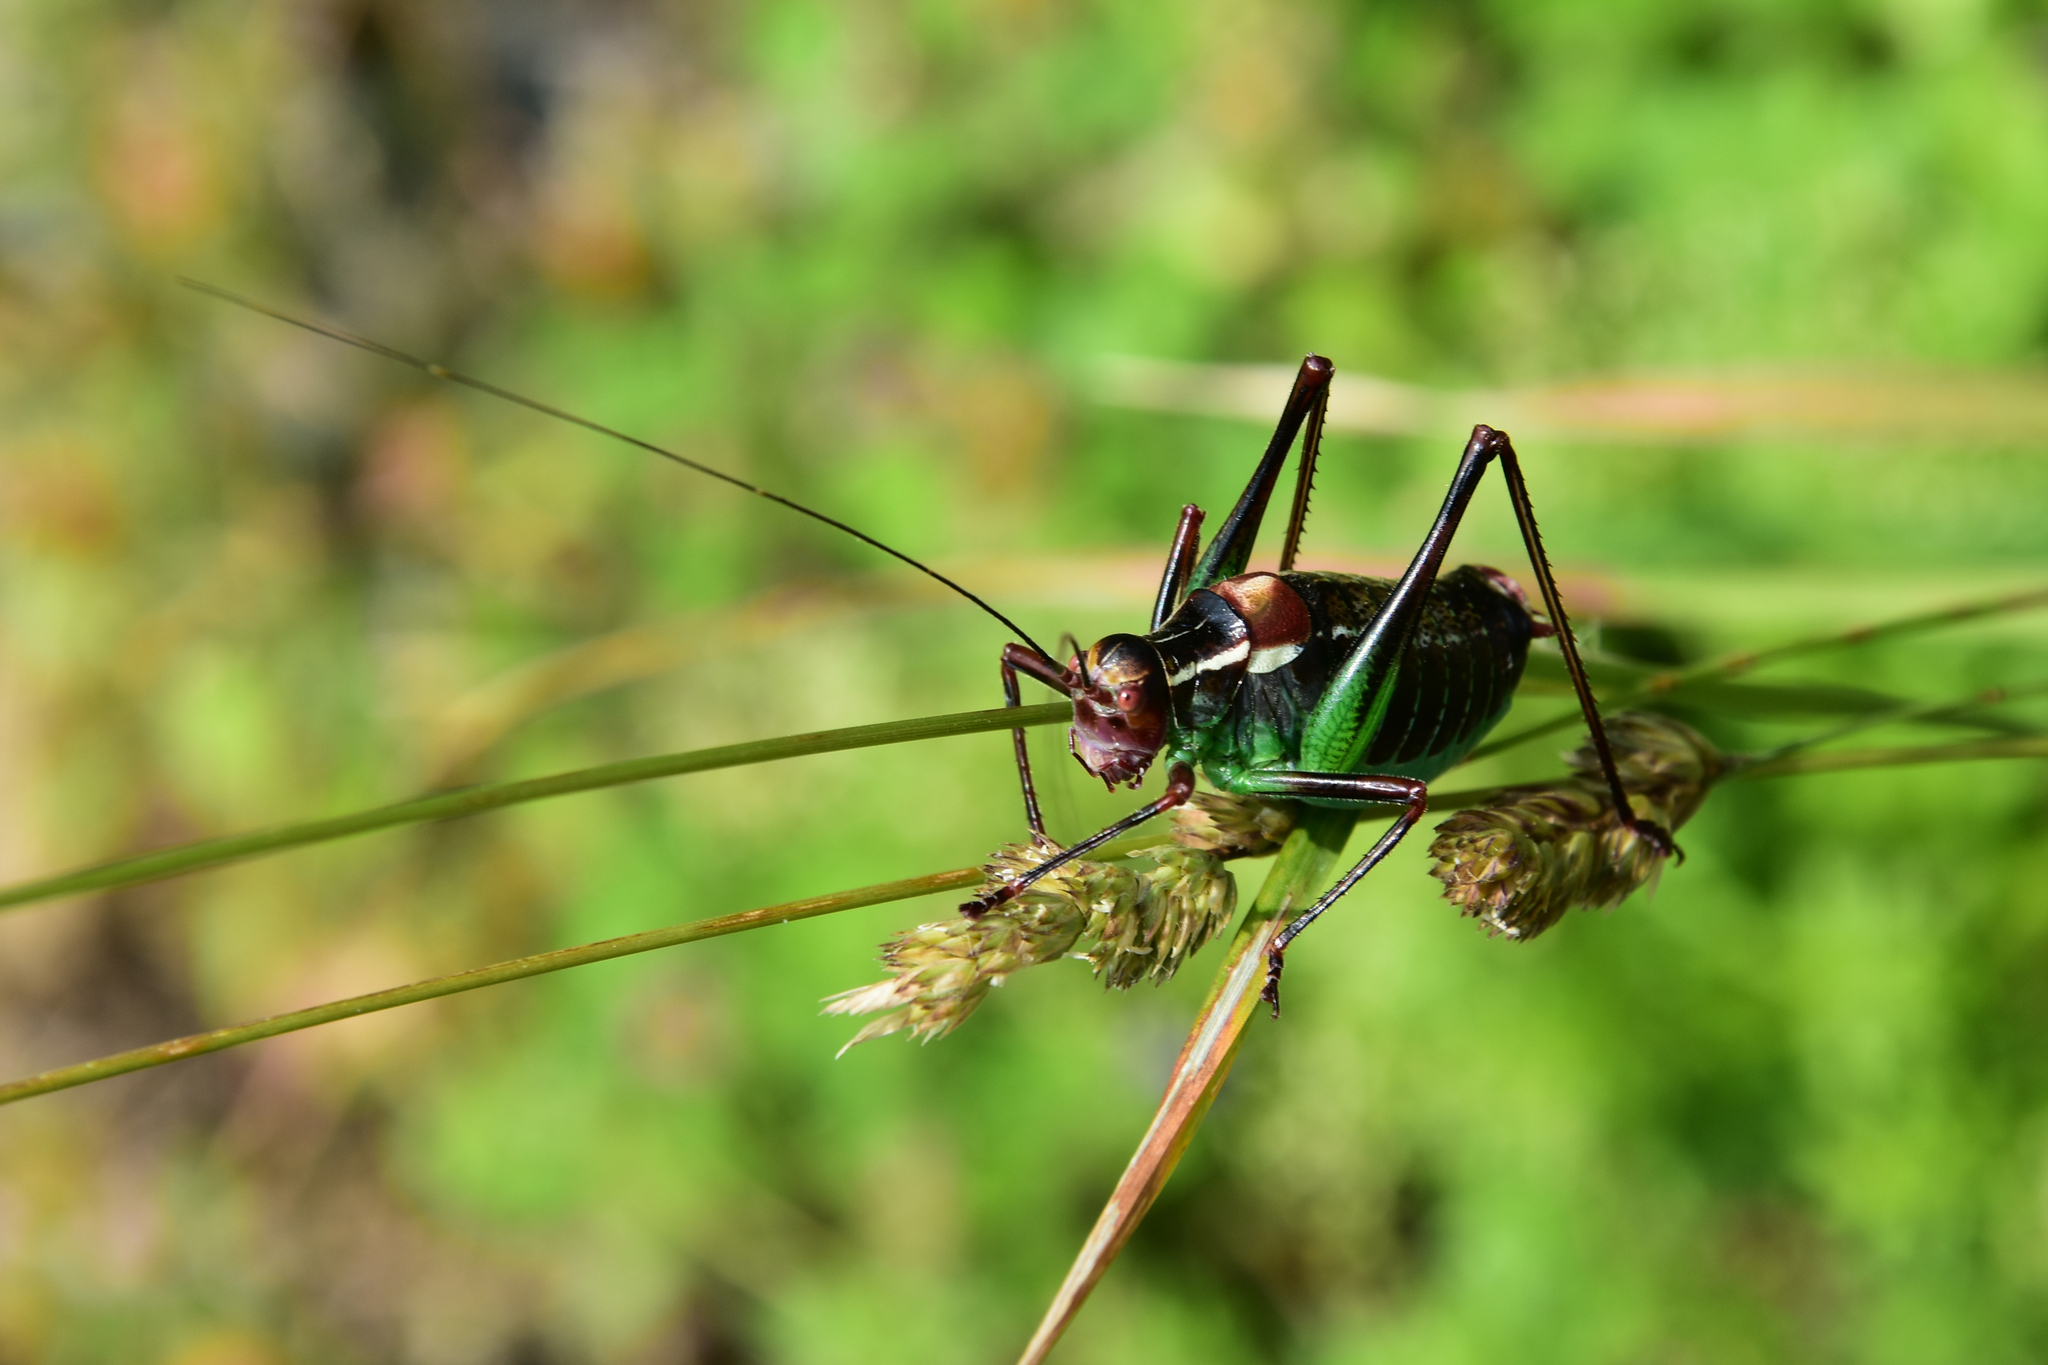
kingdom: Animalia
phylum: Arthropoda
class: Insecta
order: Orthoptera
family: Tettigoniidae
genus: Barbitistes
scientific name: Barbitistes ocskayi
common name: Black saw bush-cricket
